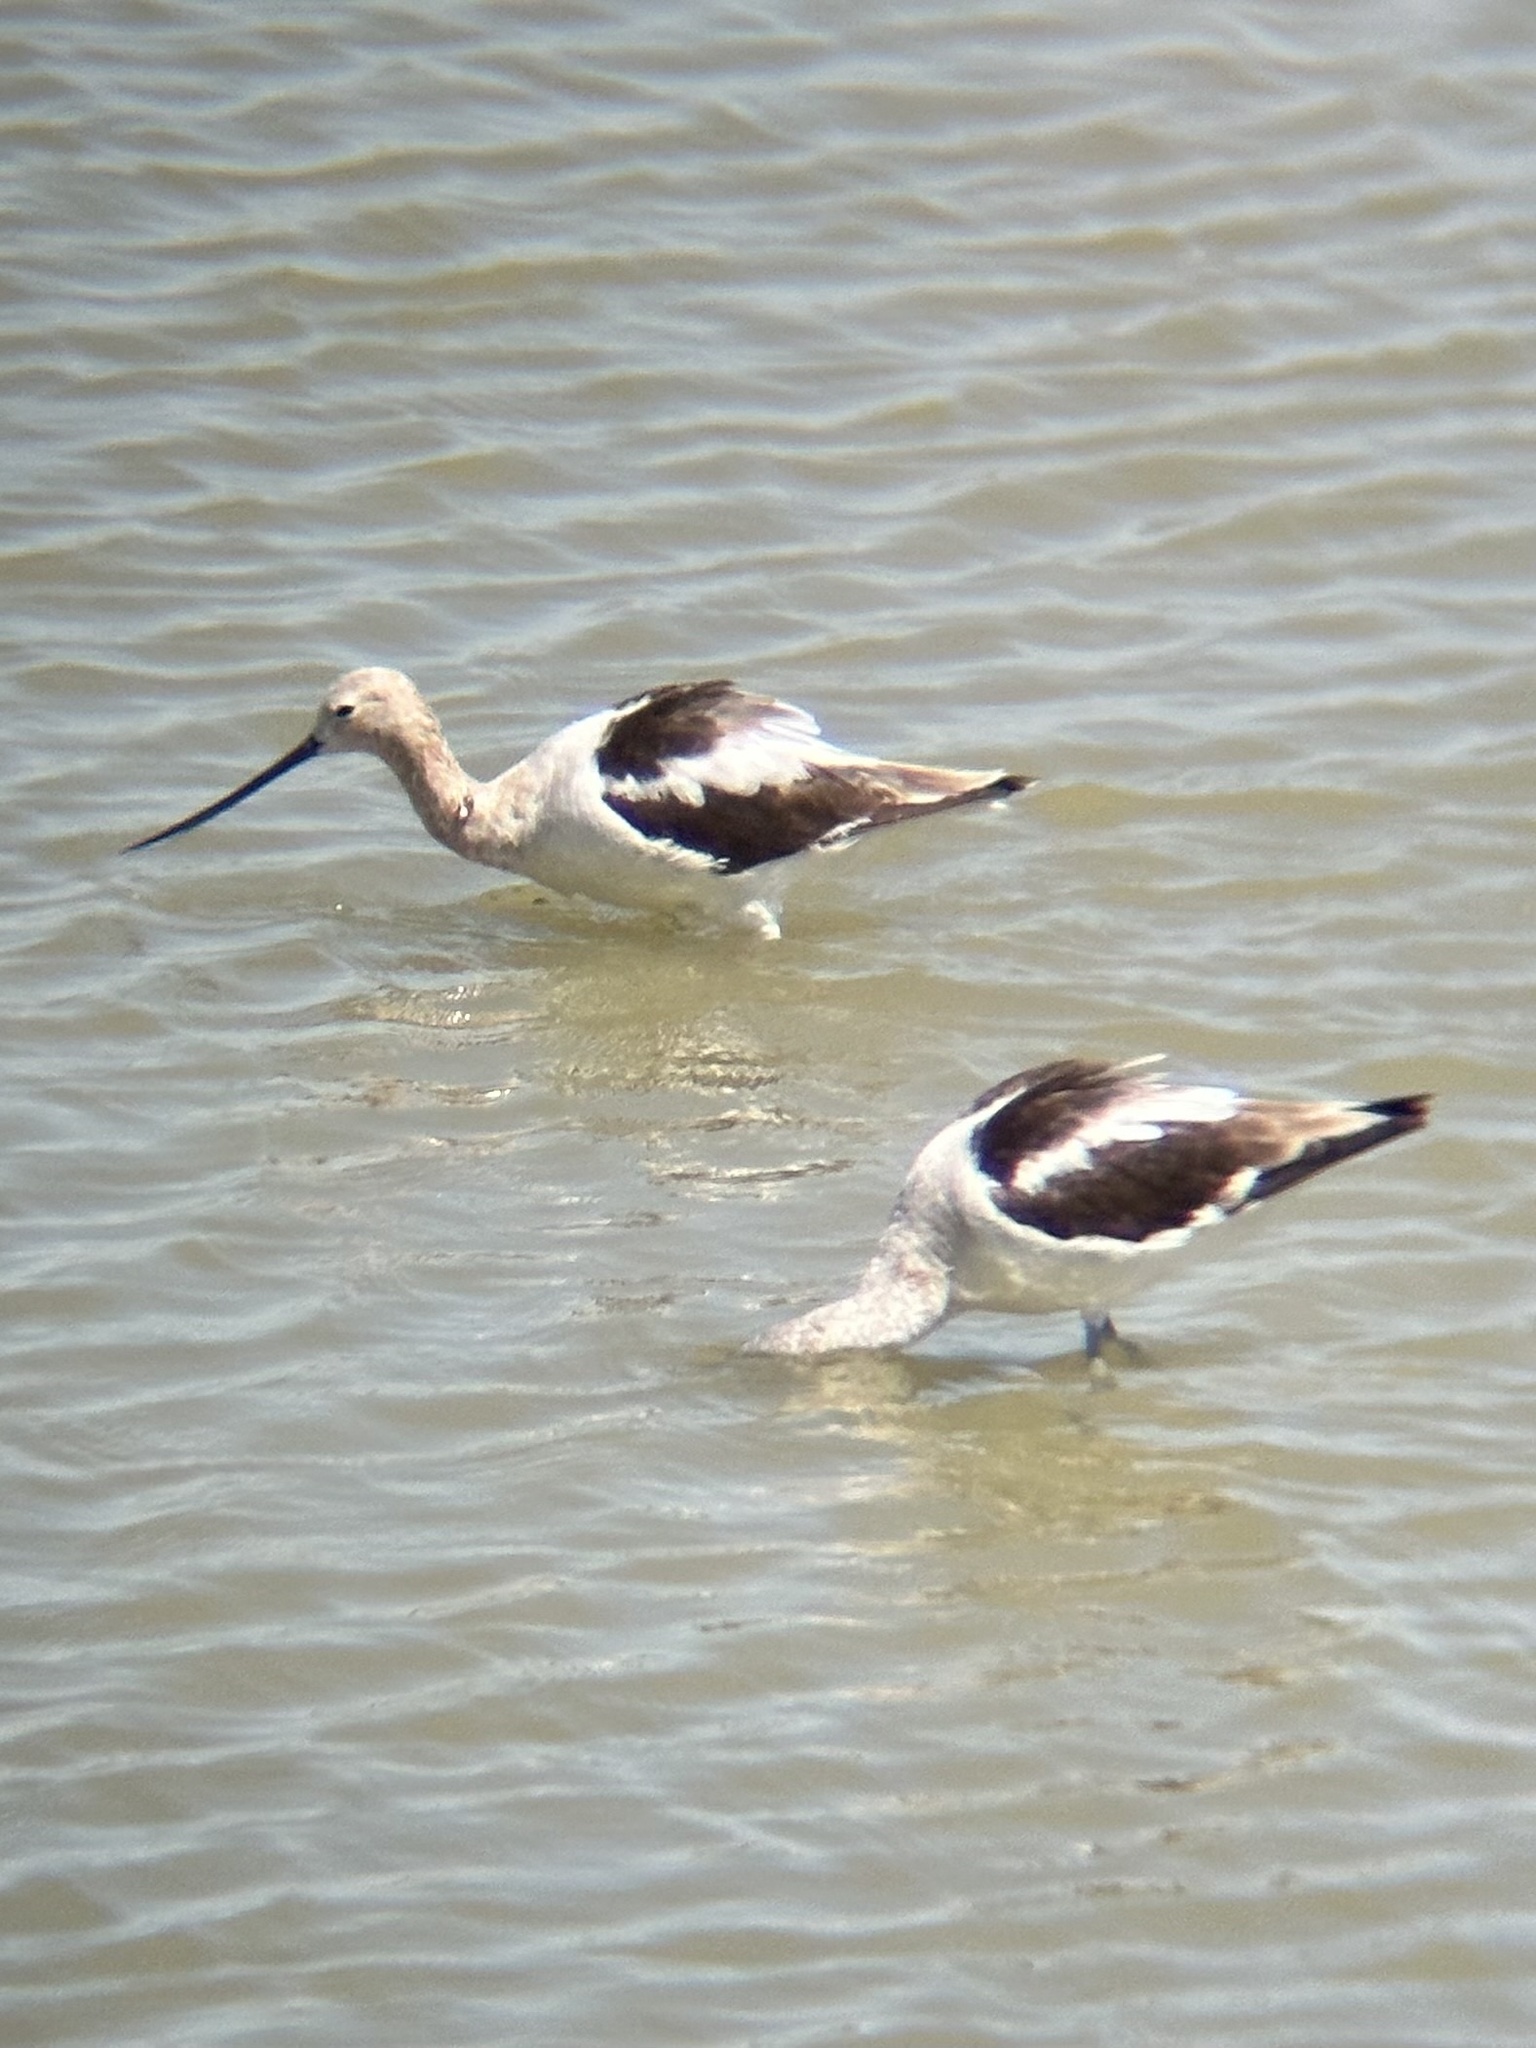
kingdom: Animalia
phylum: Chordata
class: Aves
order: Charadriiformes
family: Recurvirostridae
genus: Recurvirostra
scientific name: Recurvirostra americana
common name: American avocet
